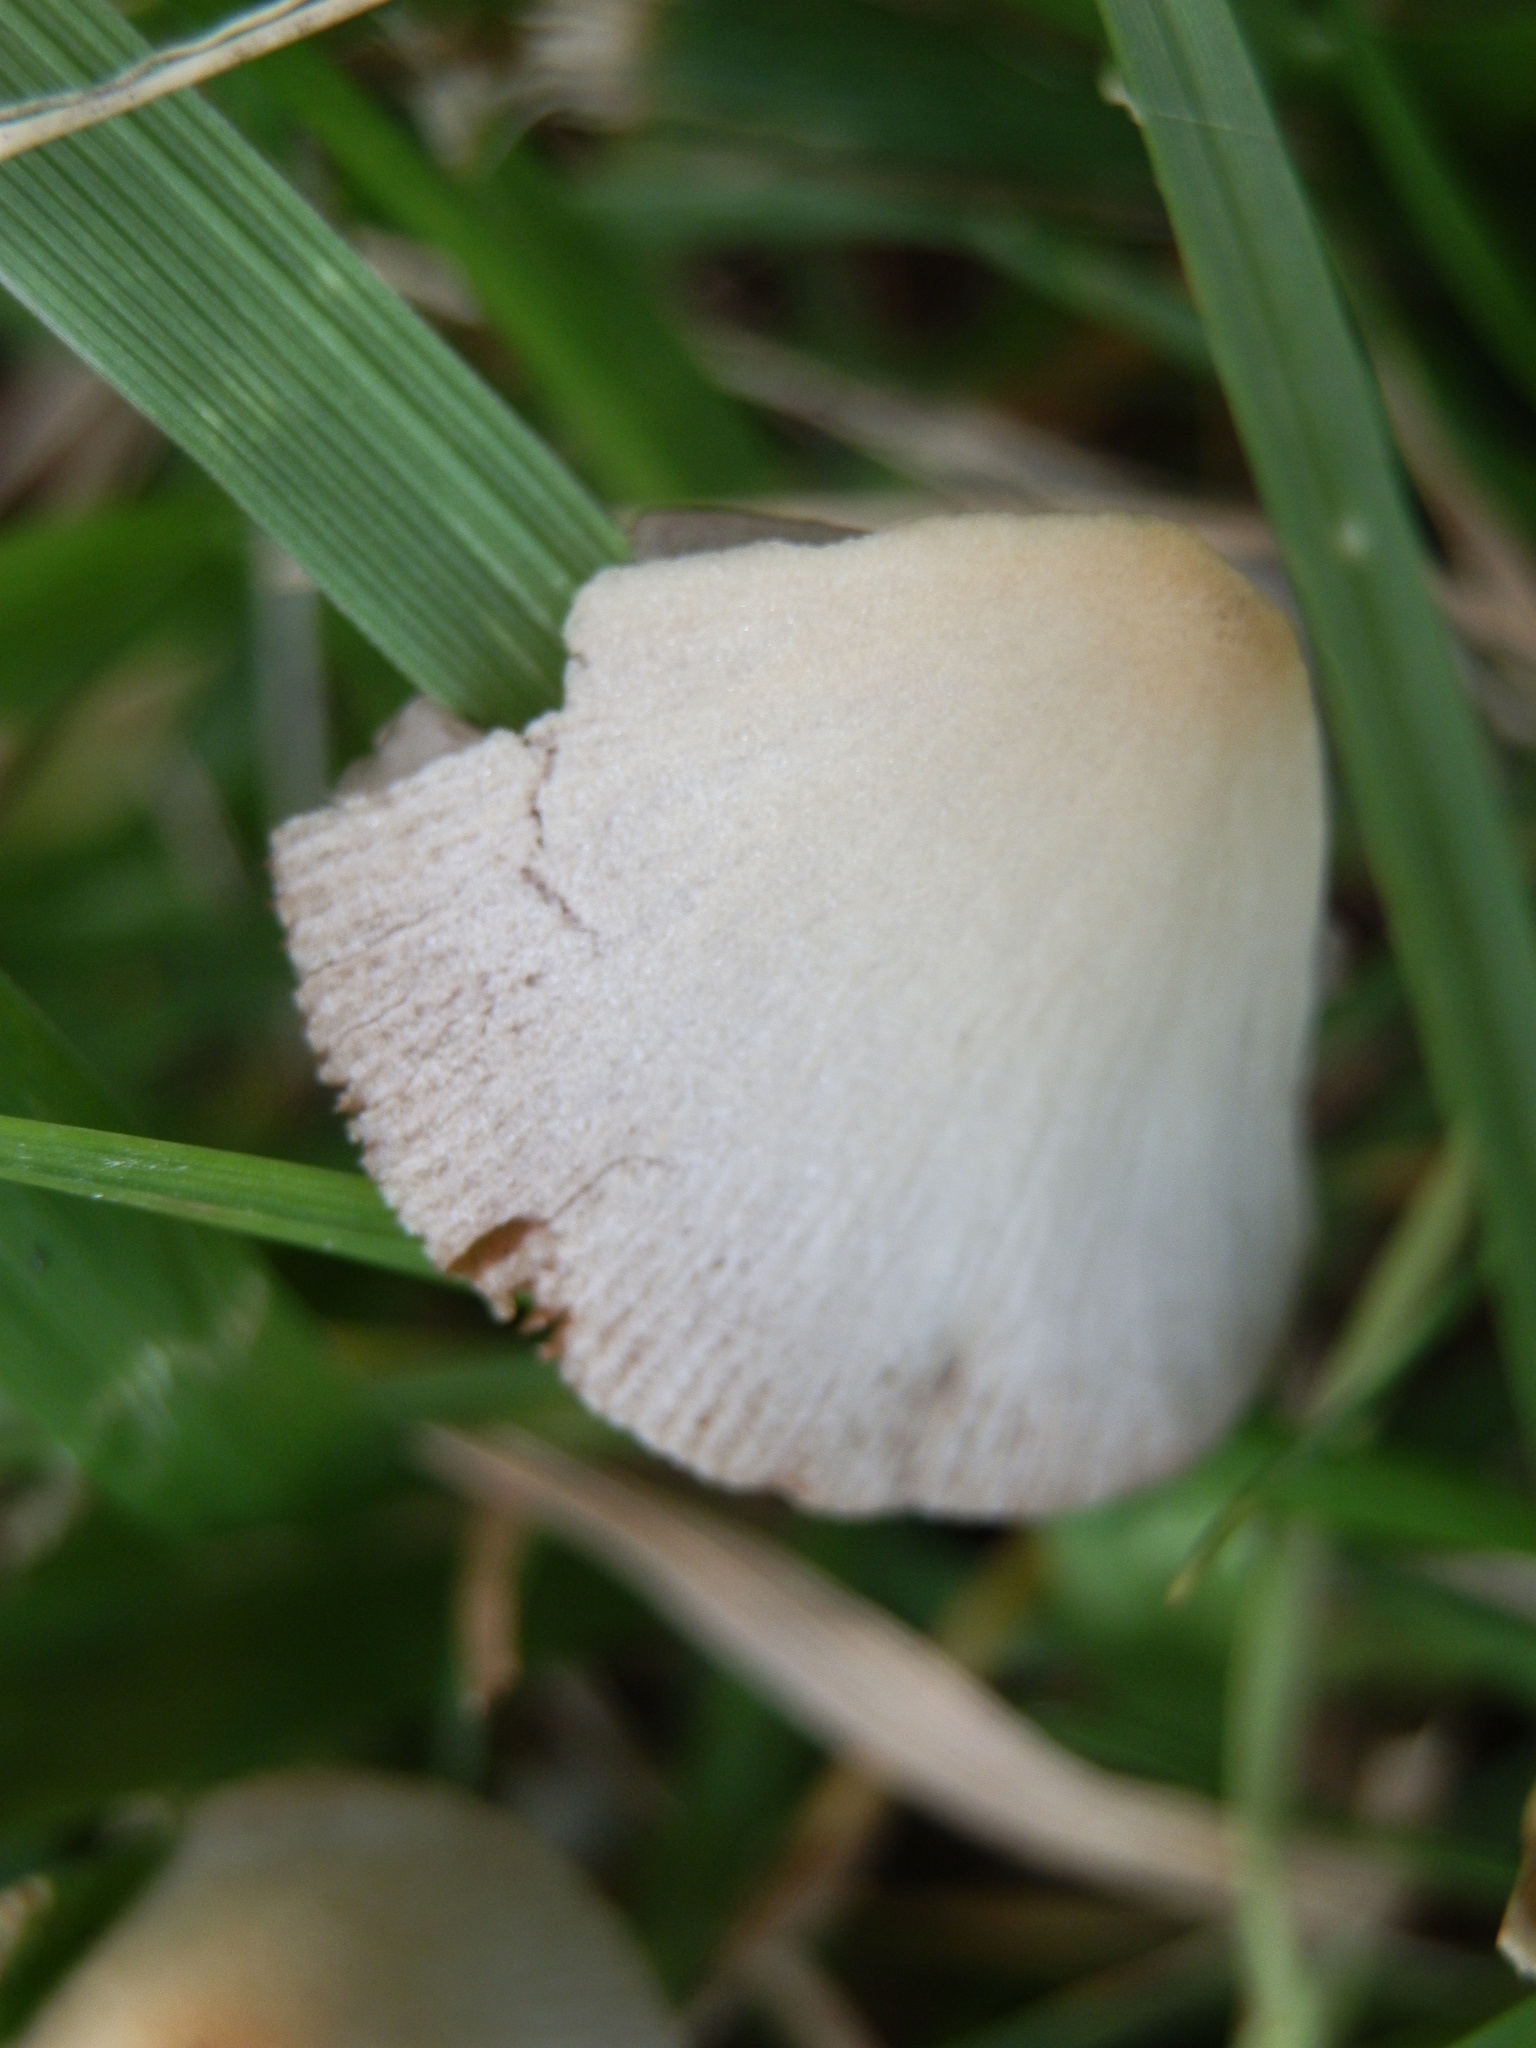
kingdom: Fungi
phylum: Basidiomycota
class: Agaricomycetes
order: Agaricales
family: Bolbitiaceae
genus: Conocybe
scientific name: Conocybe apala
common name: Milky conecap
